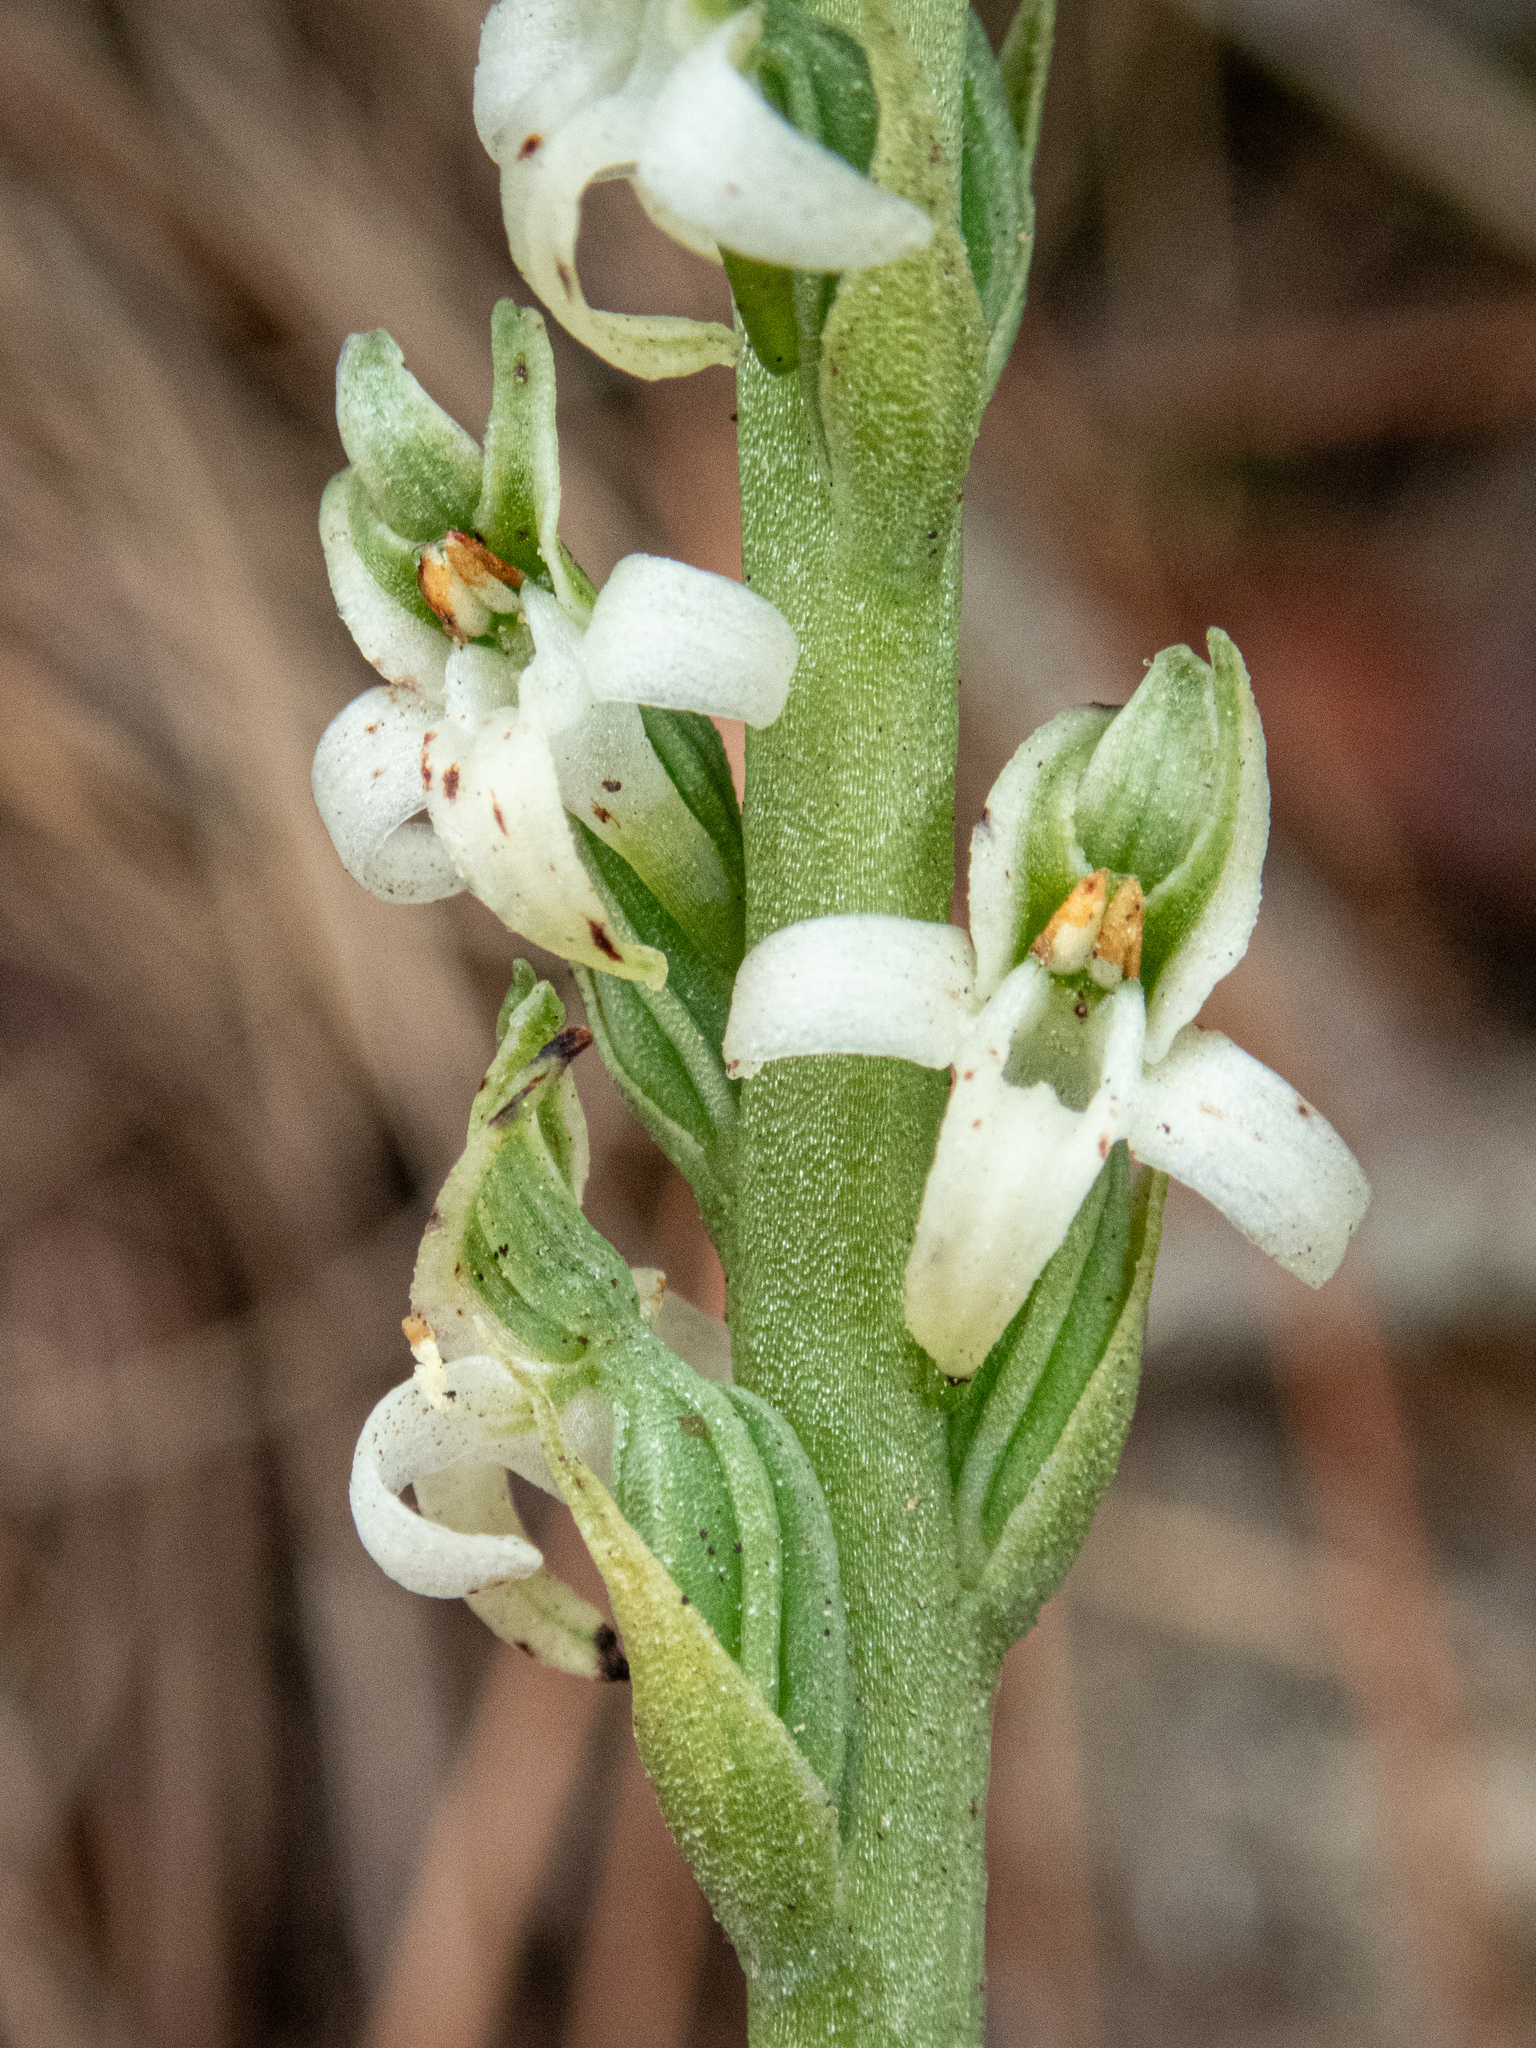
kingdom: Plantae
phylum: Tracheophyta
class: Liliopsida
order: Asparagales
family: Orchidaceae
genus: Platanthera
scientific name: Platanthera yadonii
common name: Yadon’s piperia
